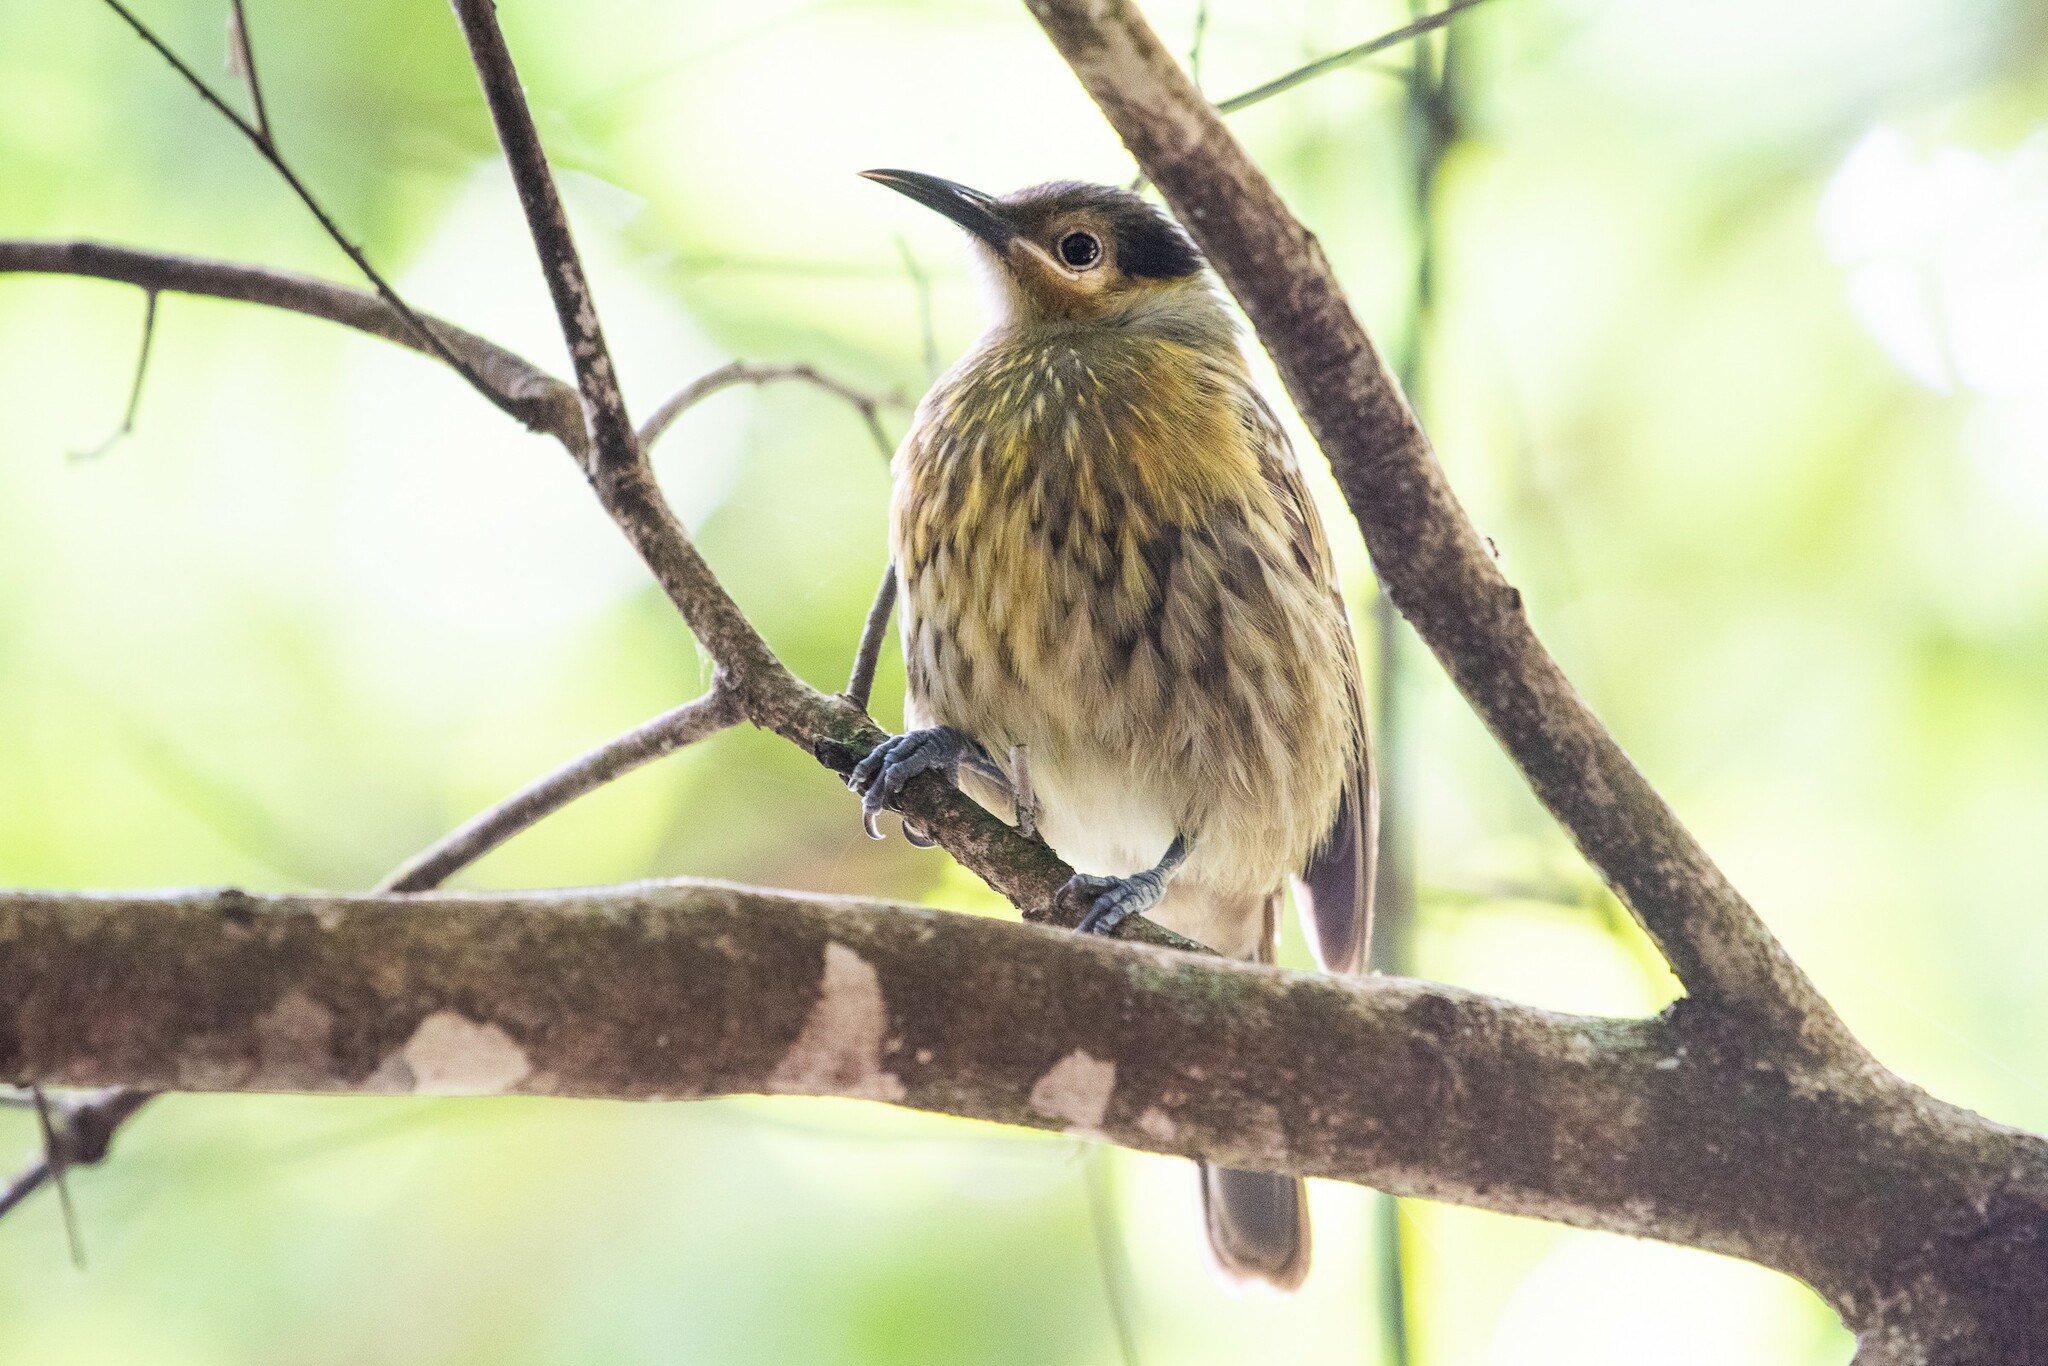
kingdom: Animalia
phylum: Chordata
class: Aves
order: Passeriformes
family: Meliphagidae
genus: Xanthotis
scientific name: Xanthotis macleayanus
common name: Macleay's honeyeater
